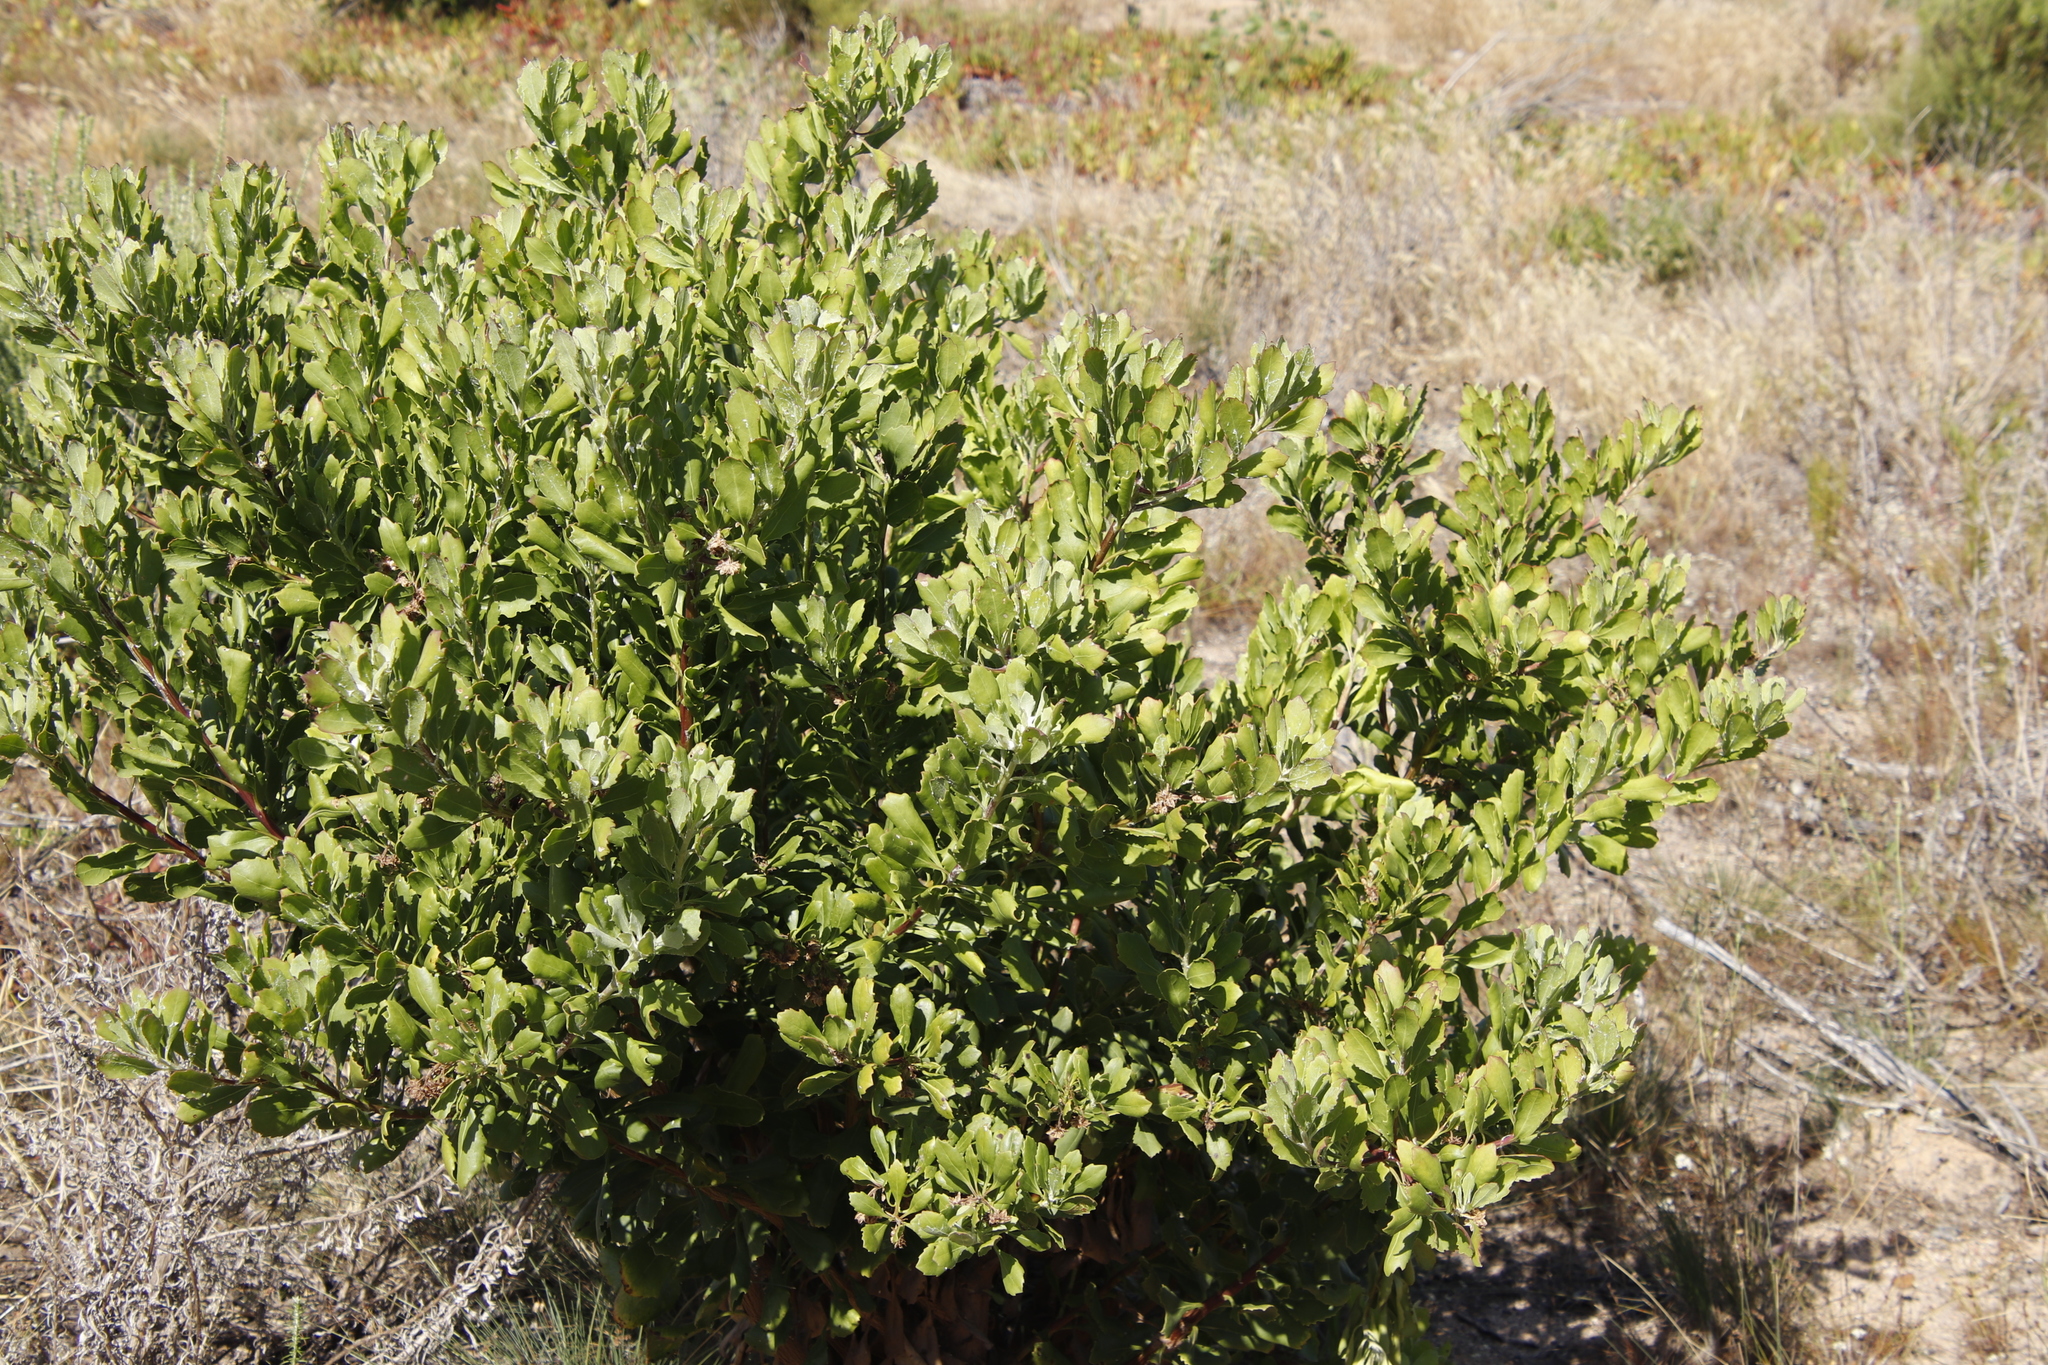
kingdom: Plantae
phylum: Tracheophyta
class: Magnoliopsida
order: Asterales
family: Asteraceae
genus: Osteospermum
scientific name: Osteospermum moniliferum
